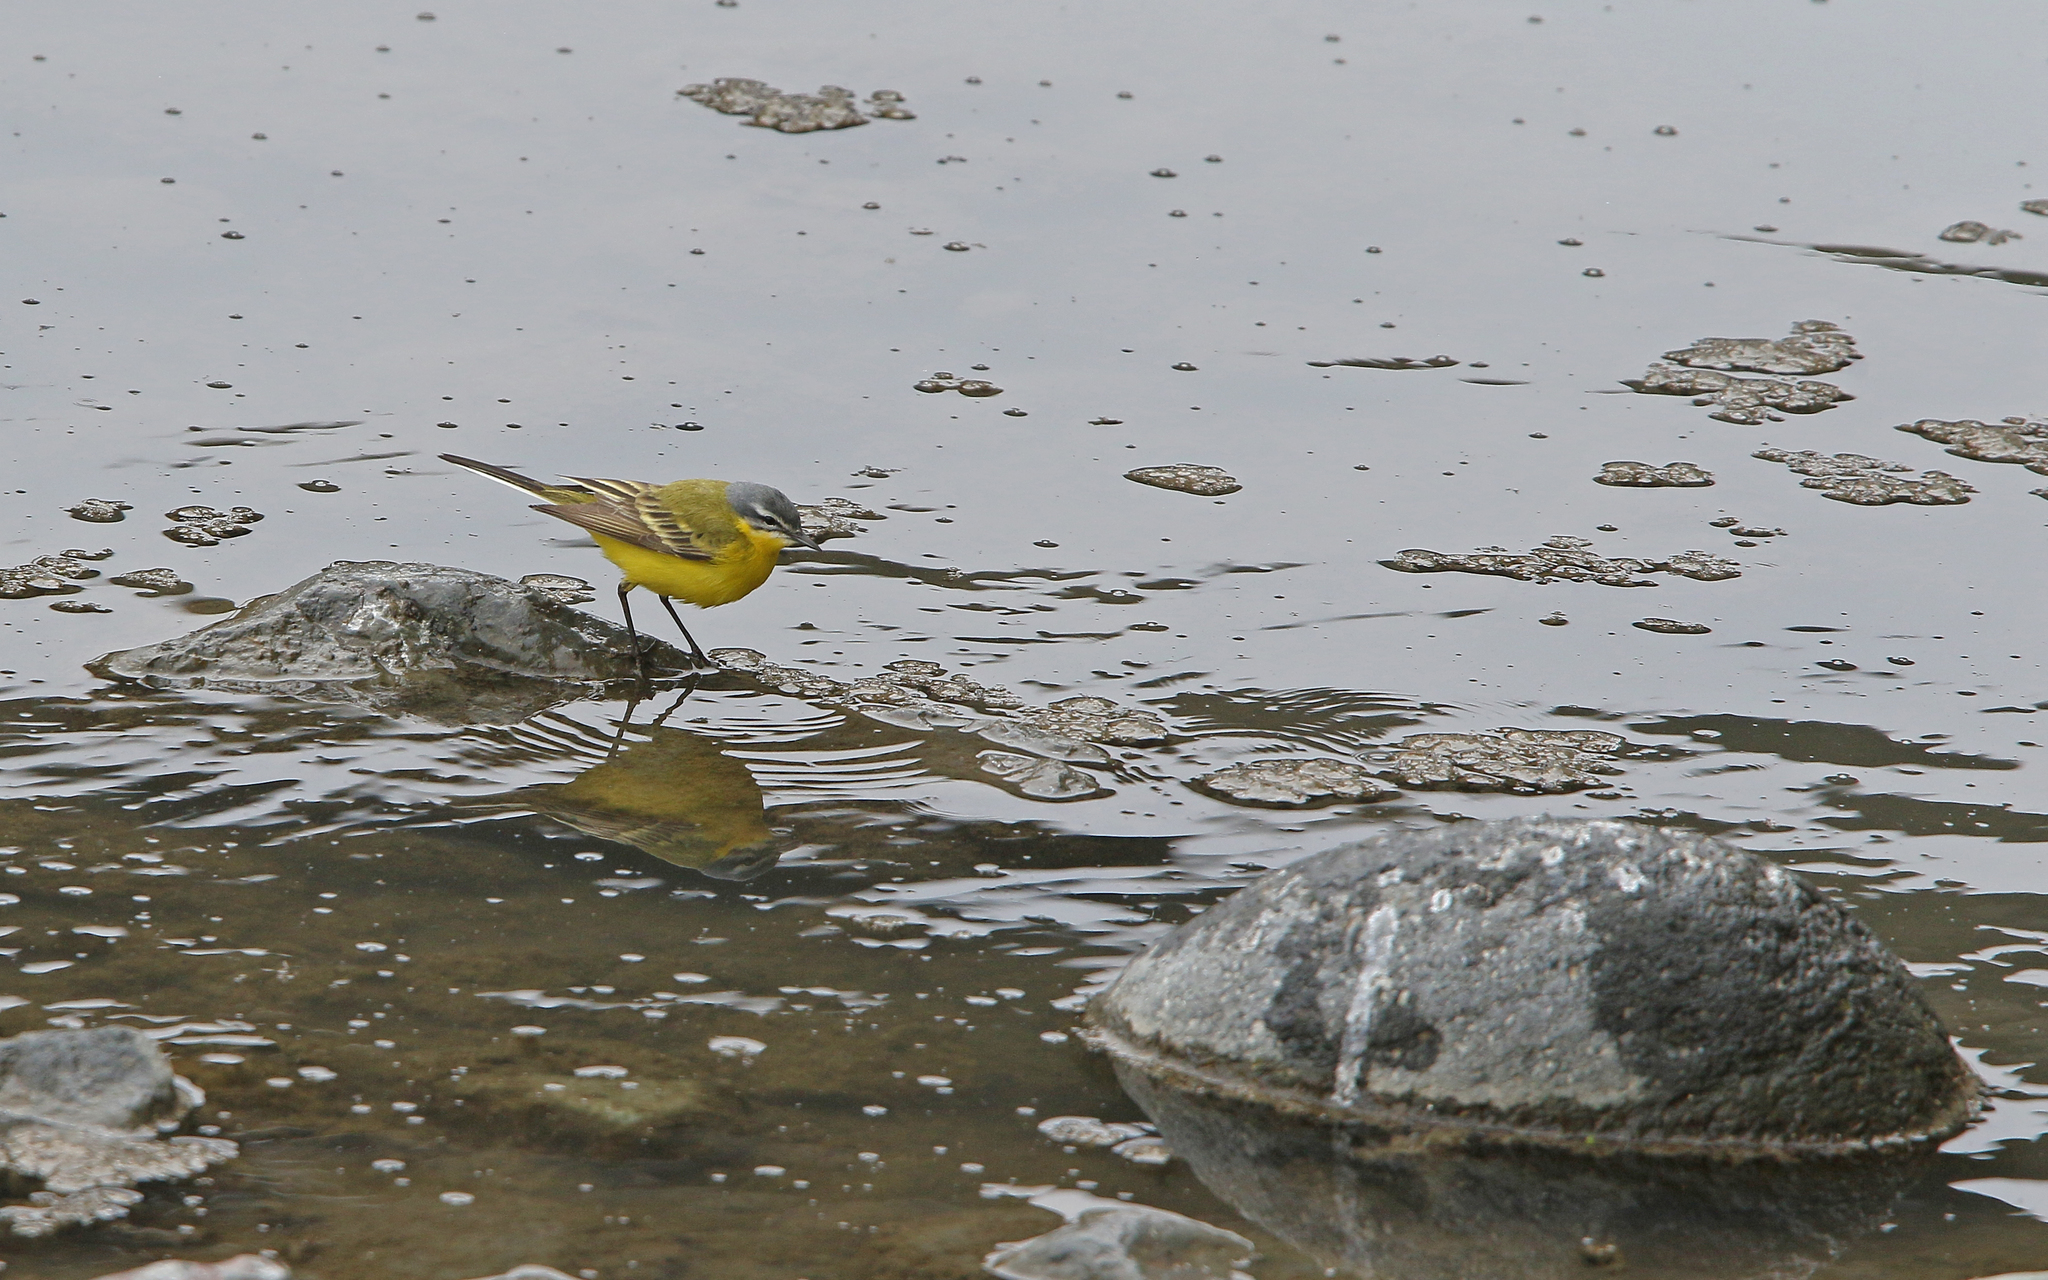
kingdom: Animalia
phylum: Chordata
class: Aves
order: Passeriformes
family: Motacillidae
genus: Motacilla
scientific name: Motacilla flava
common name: Western yellow wagtail
